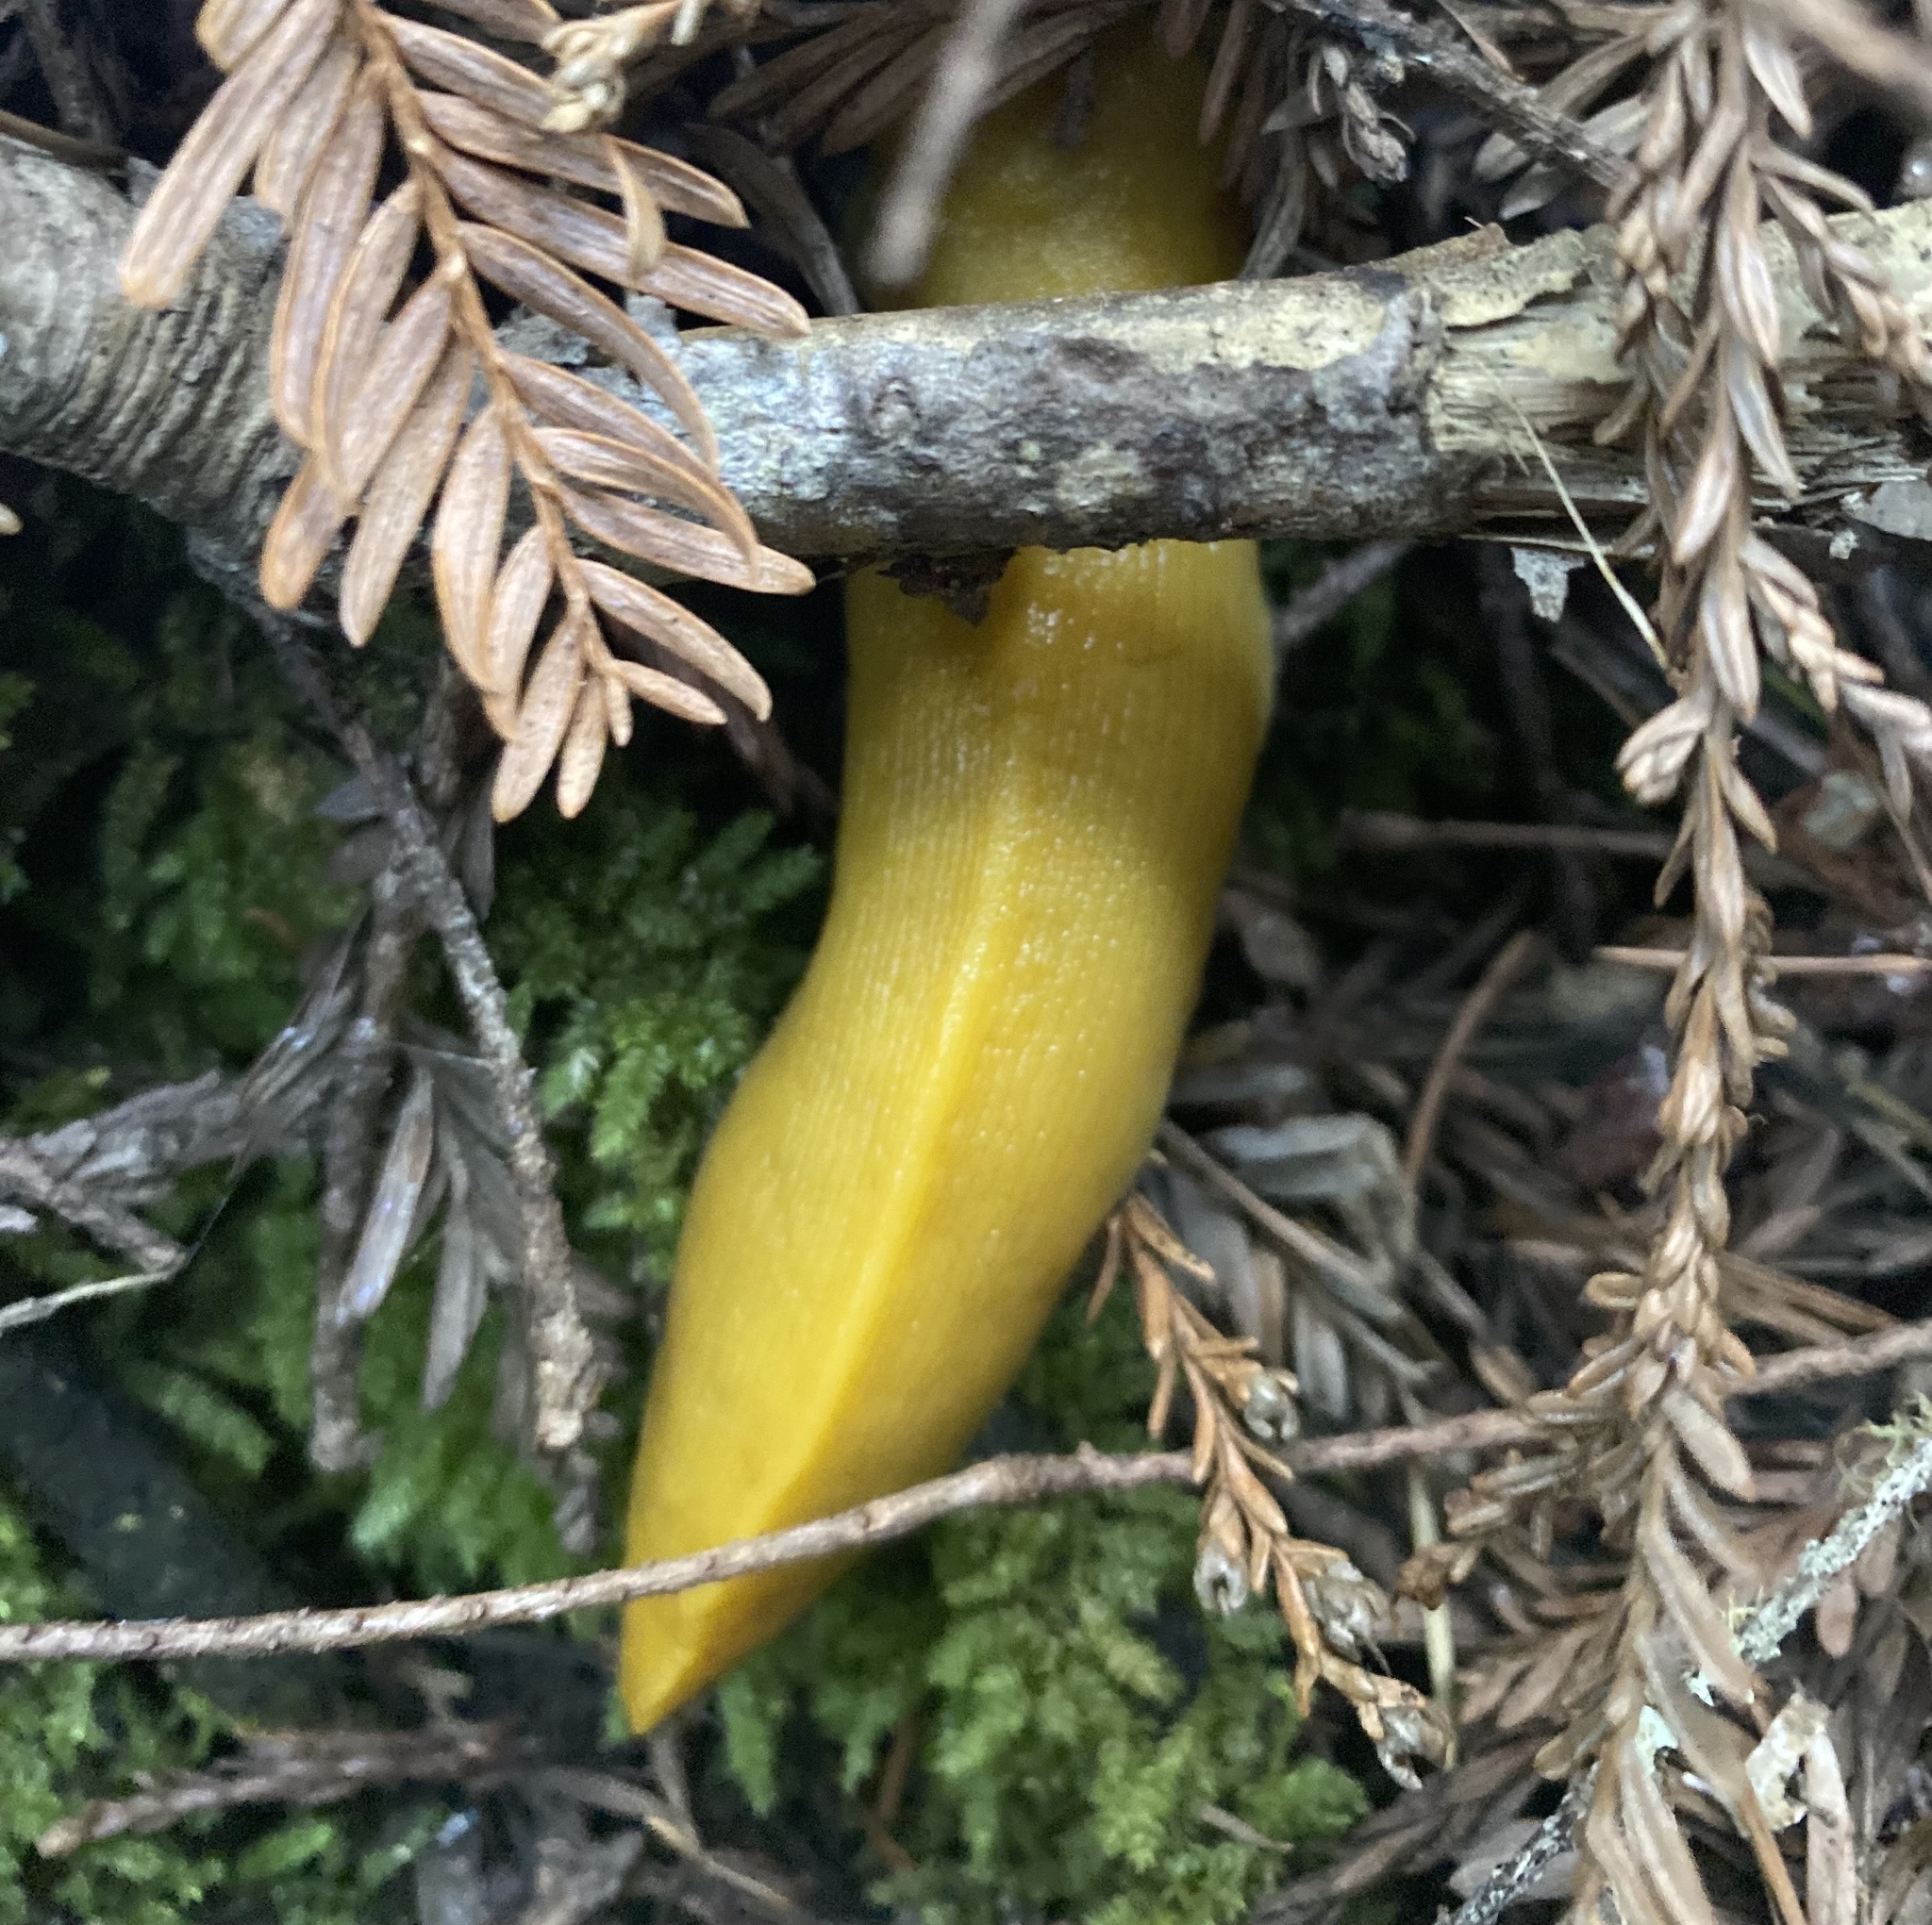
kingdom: Animalia
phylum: Mollusca
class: Gastropoda
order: Stylommatophora
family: Ariolimacidae
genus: Ariolimax
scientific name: Ariolimax dolichophallus
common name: Slender banana slug
